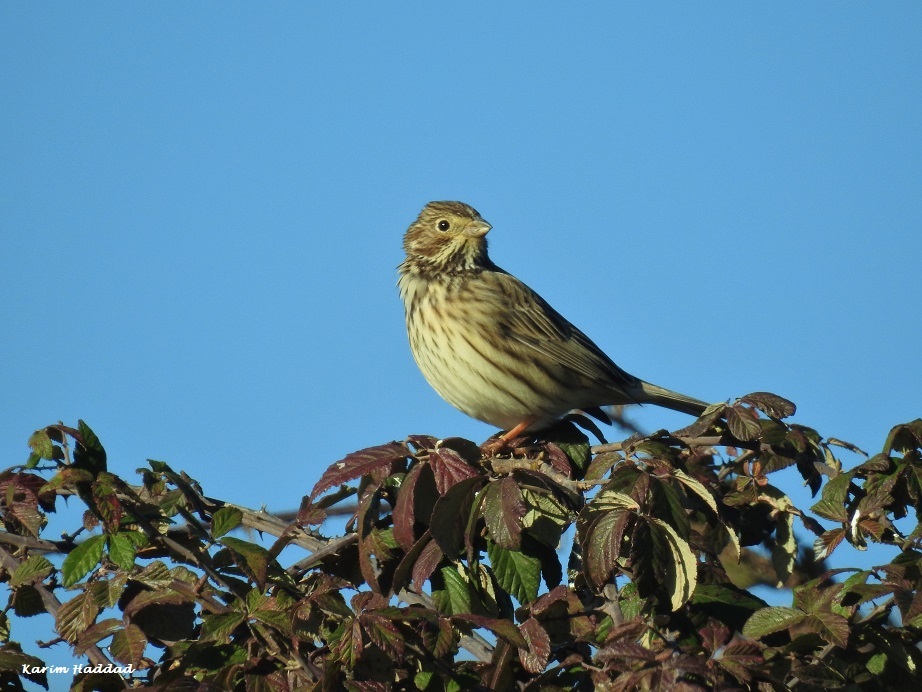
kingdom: Animalia
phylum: Chordata
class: Aves
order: Passeriformes
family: Emberizidae
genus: Emberiza
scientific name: Emberiza calandra
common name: Corn bunting
